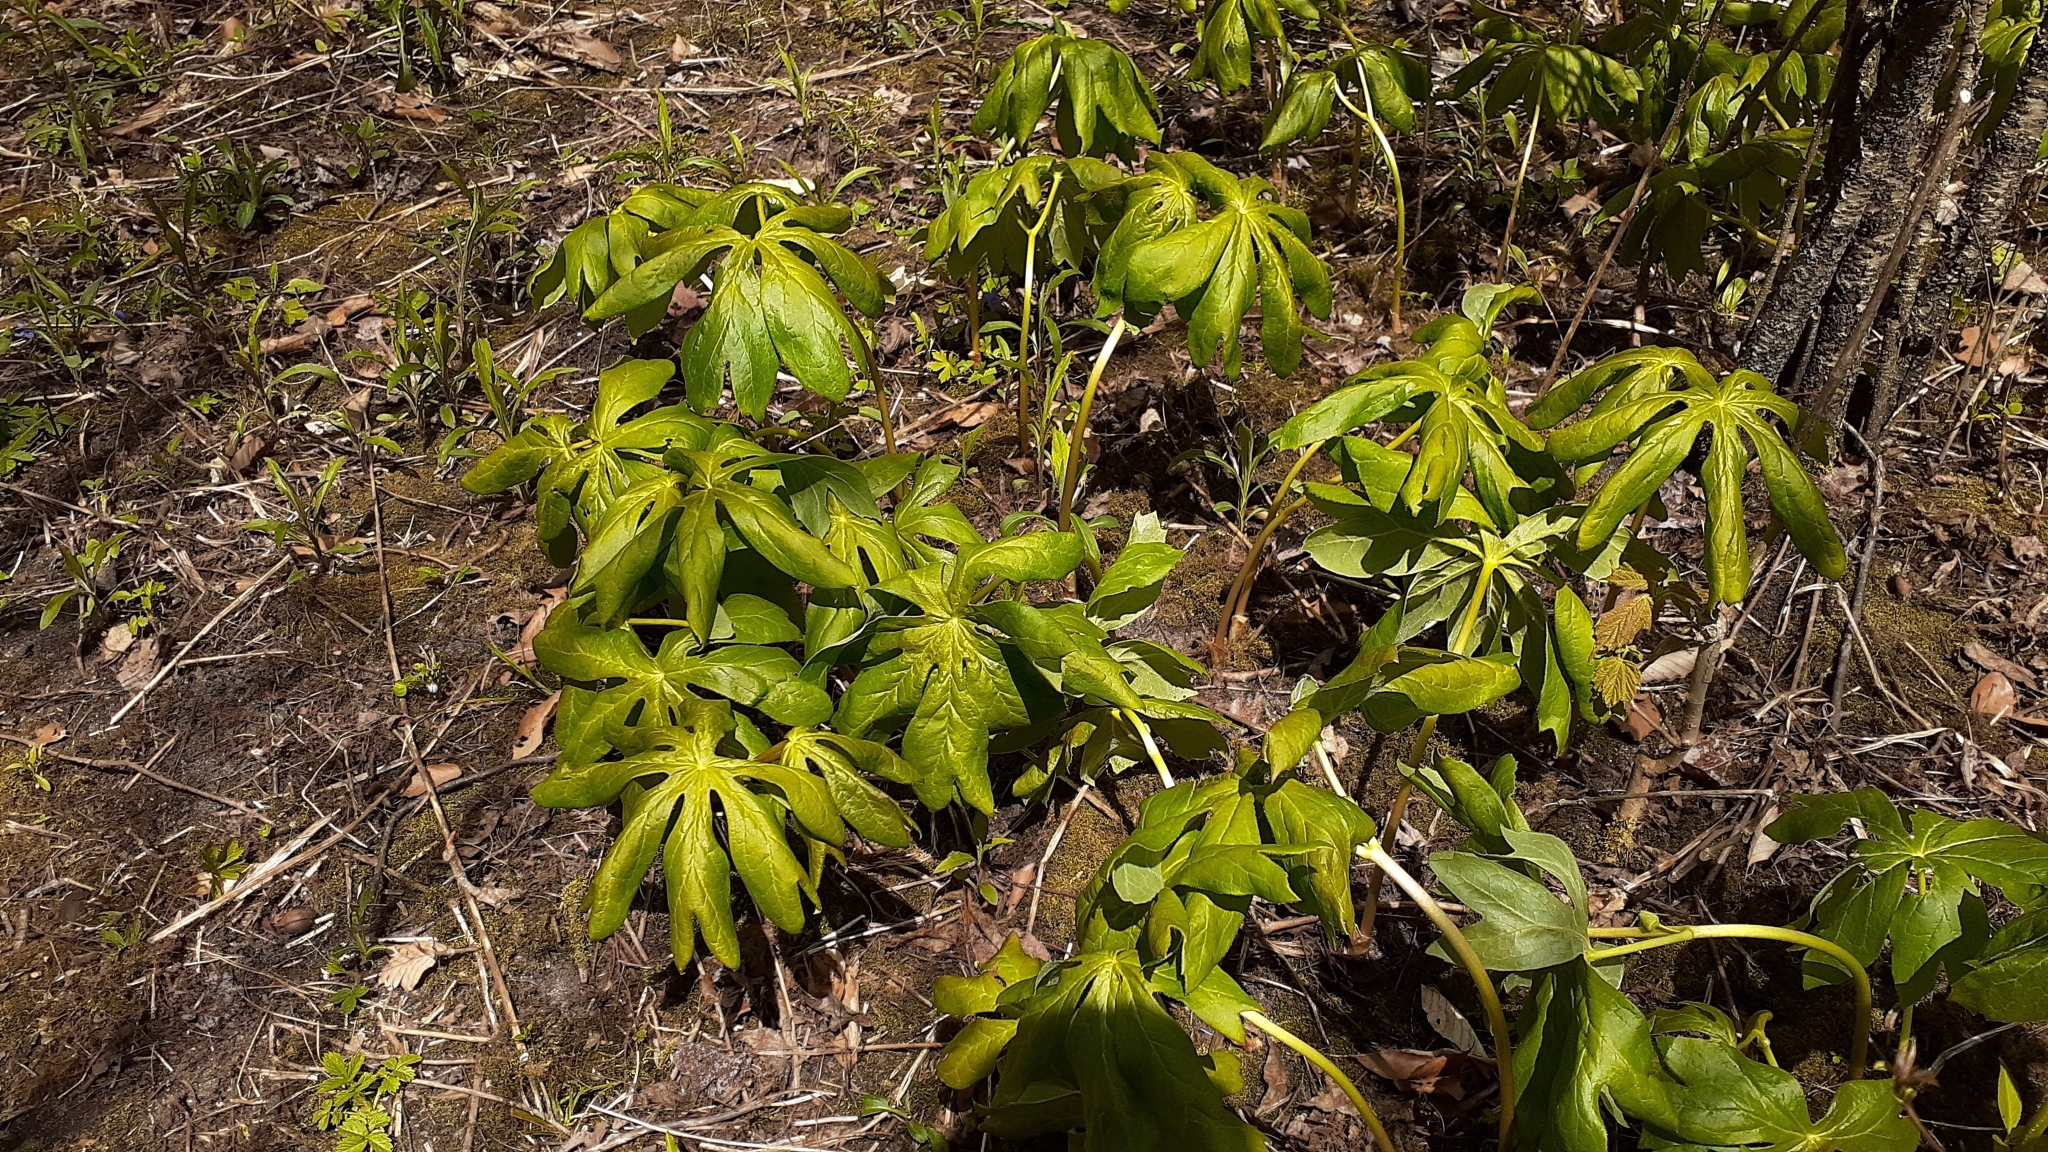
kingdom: Plantae
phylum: Tracheophyta
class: Magnoliopsida
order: Ranunculales
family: Berberidaceae
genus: Podophyllum
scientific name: Podophyllum peltatum
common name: Wild mandrake
